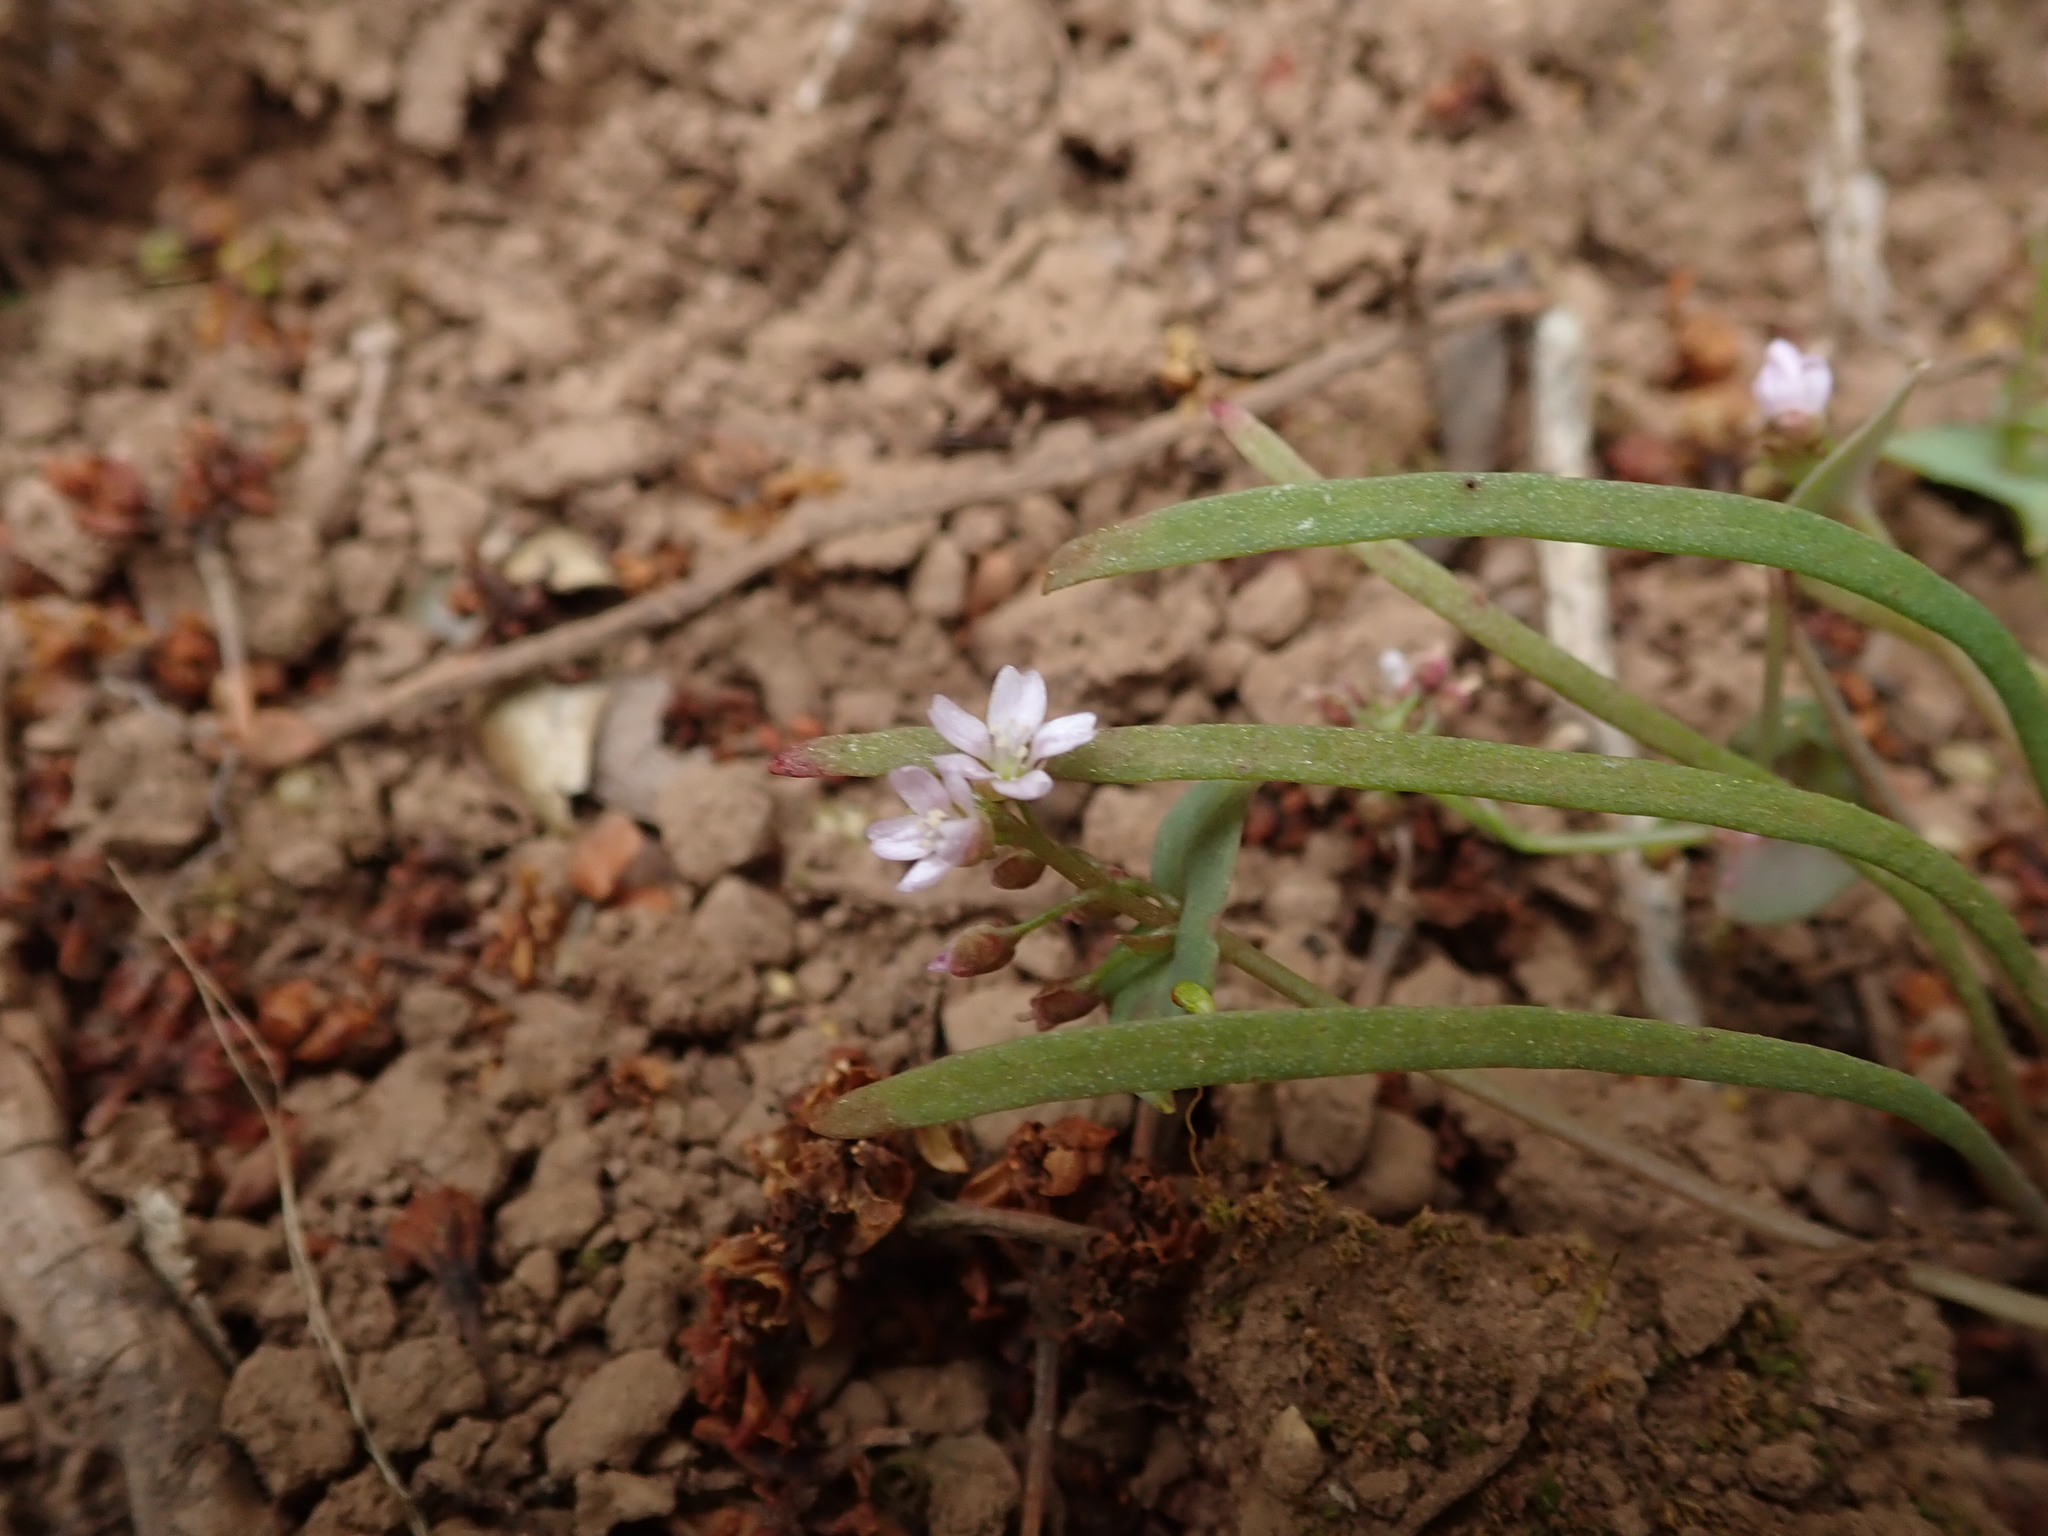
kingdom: Plantae
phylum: Tracheophyta
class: Magnoliopsida
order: Caryophyllales
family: Montiaceae
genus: Claytonia
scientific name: Claytonia parviflora
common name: Indian-lettuce
